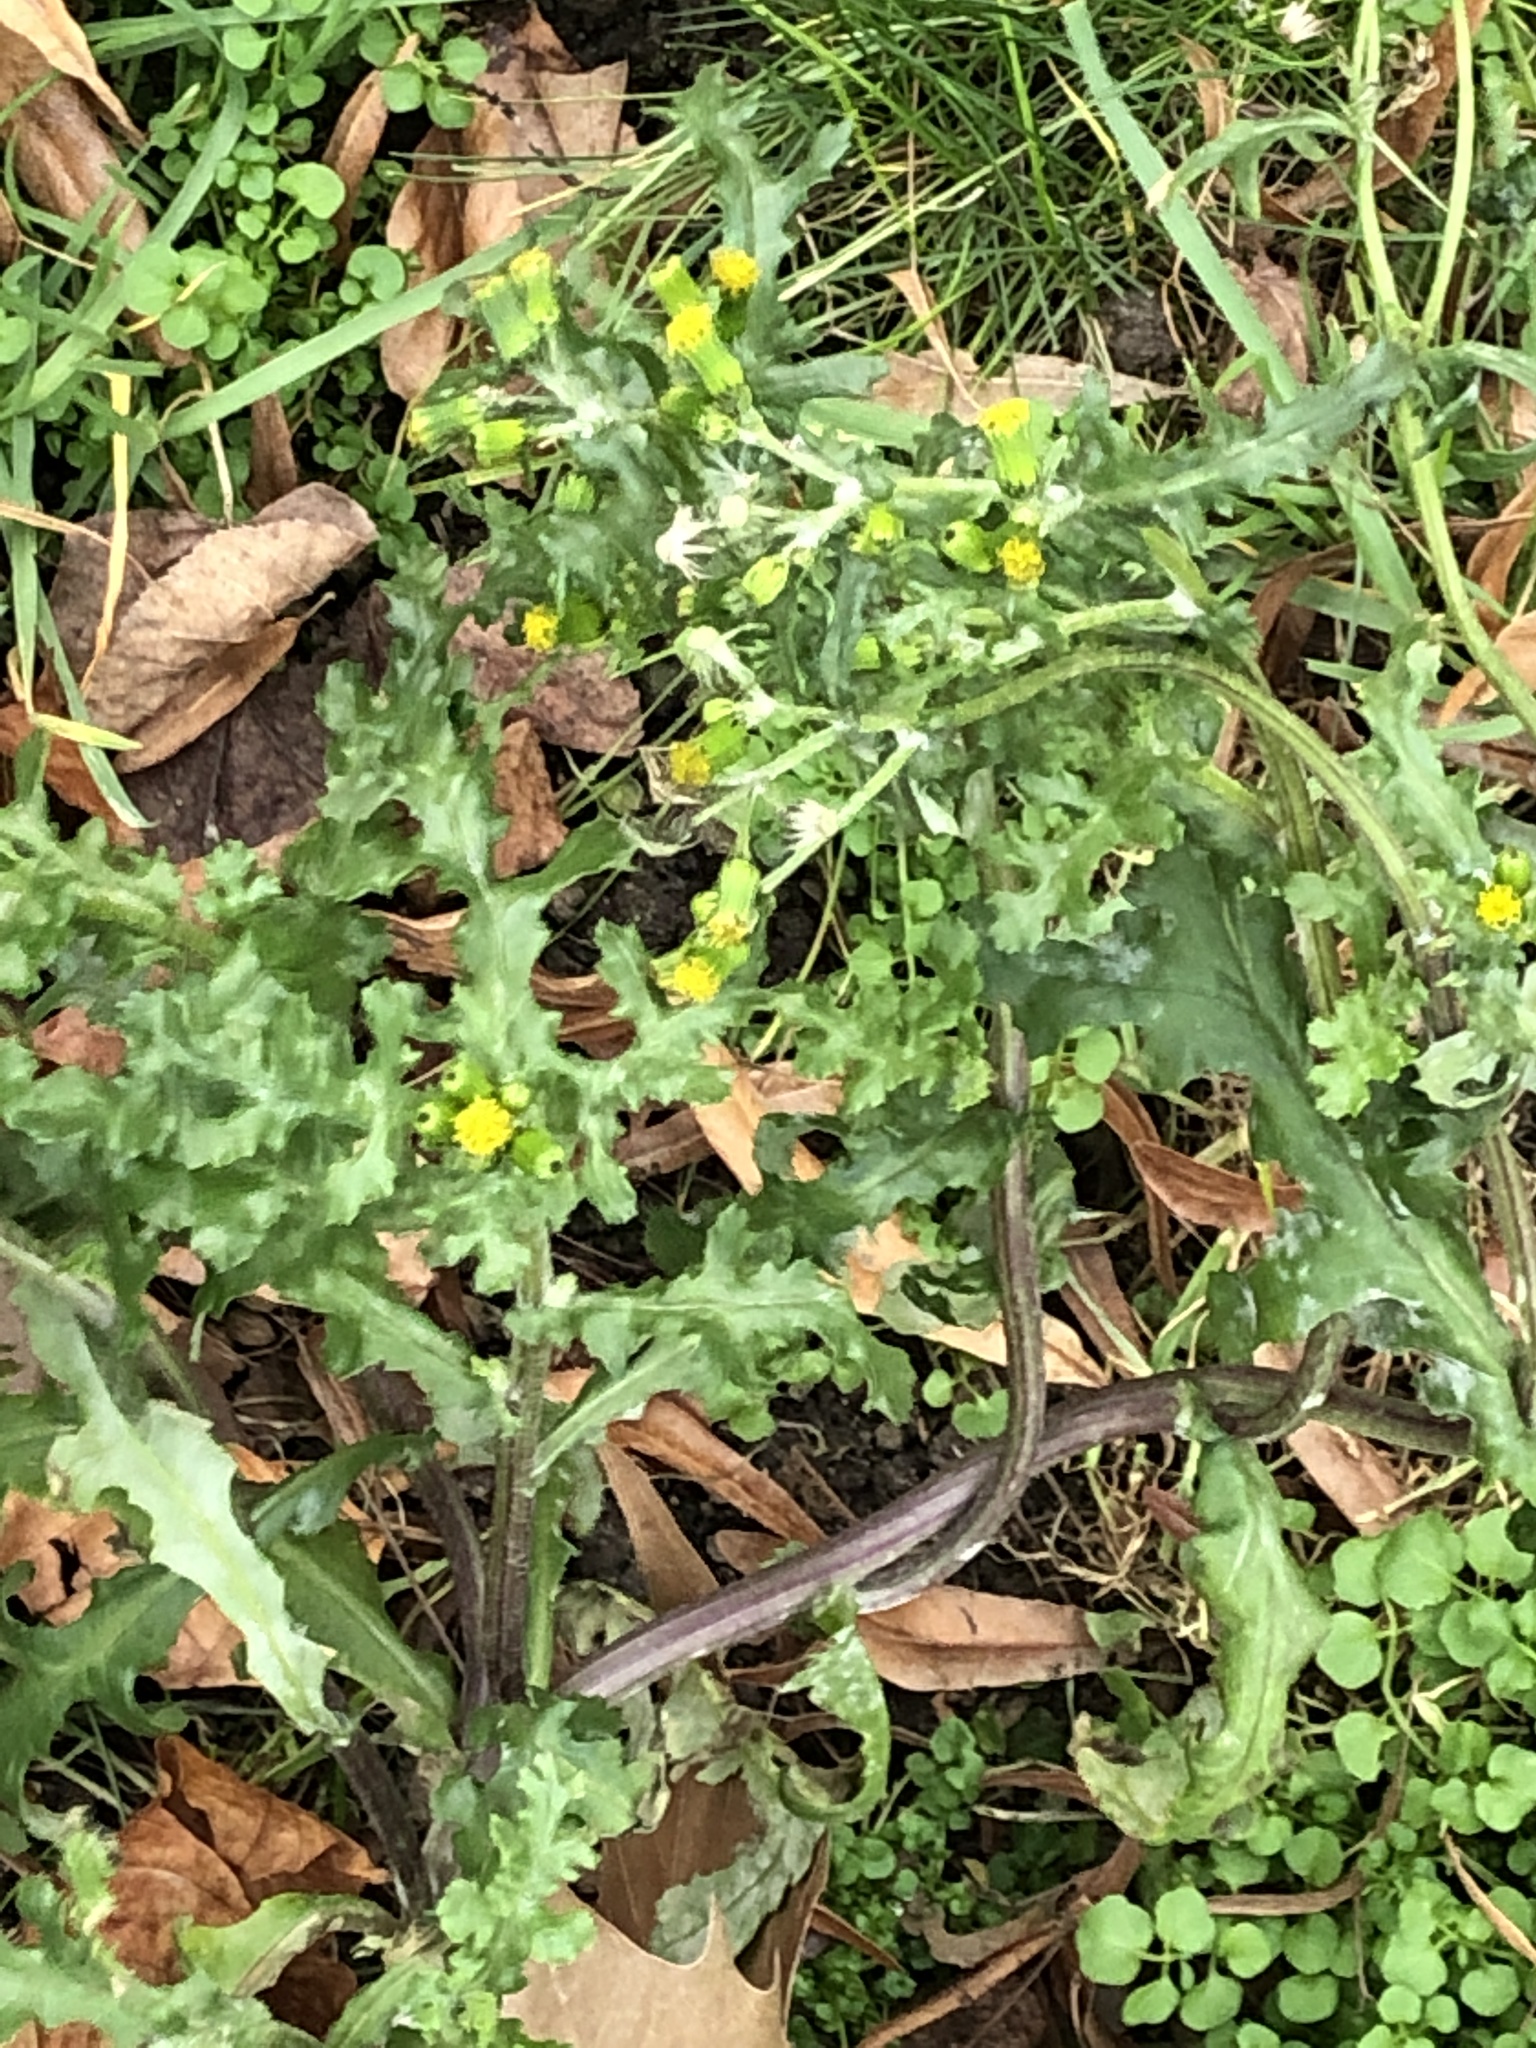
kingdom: Plantae
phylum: Tracheophyta
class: Magnoliopsida
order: Asterales
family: Asteraceae
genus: Senecio
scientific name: Senecio vulgaris
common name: Old-man-in-the-spring
